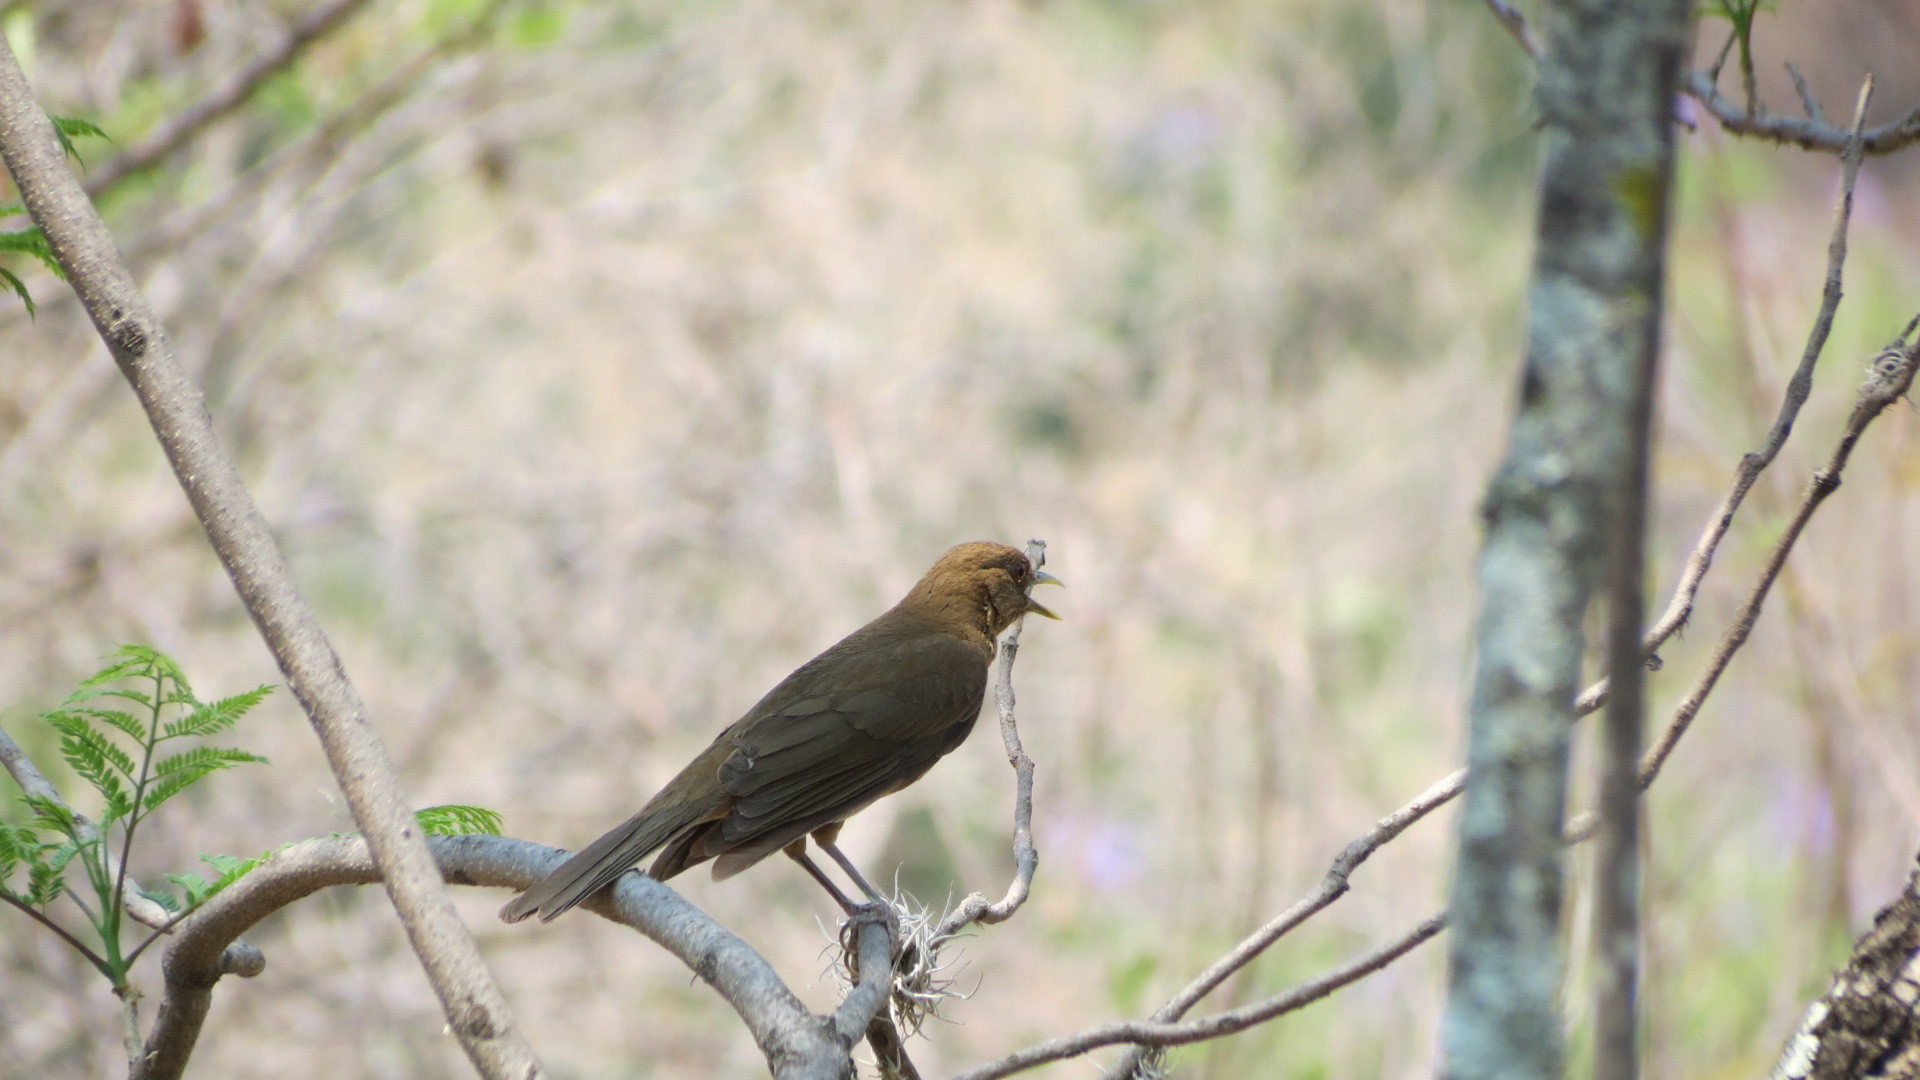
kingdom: Animalia
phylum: Chordata
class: Aves
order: Passeriformes
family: Turdidae
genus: Turdus
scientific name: Turdus grayi
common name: Clay-colored thrush
